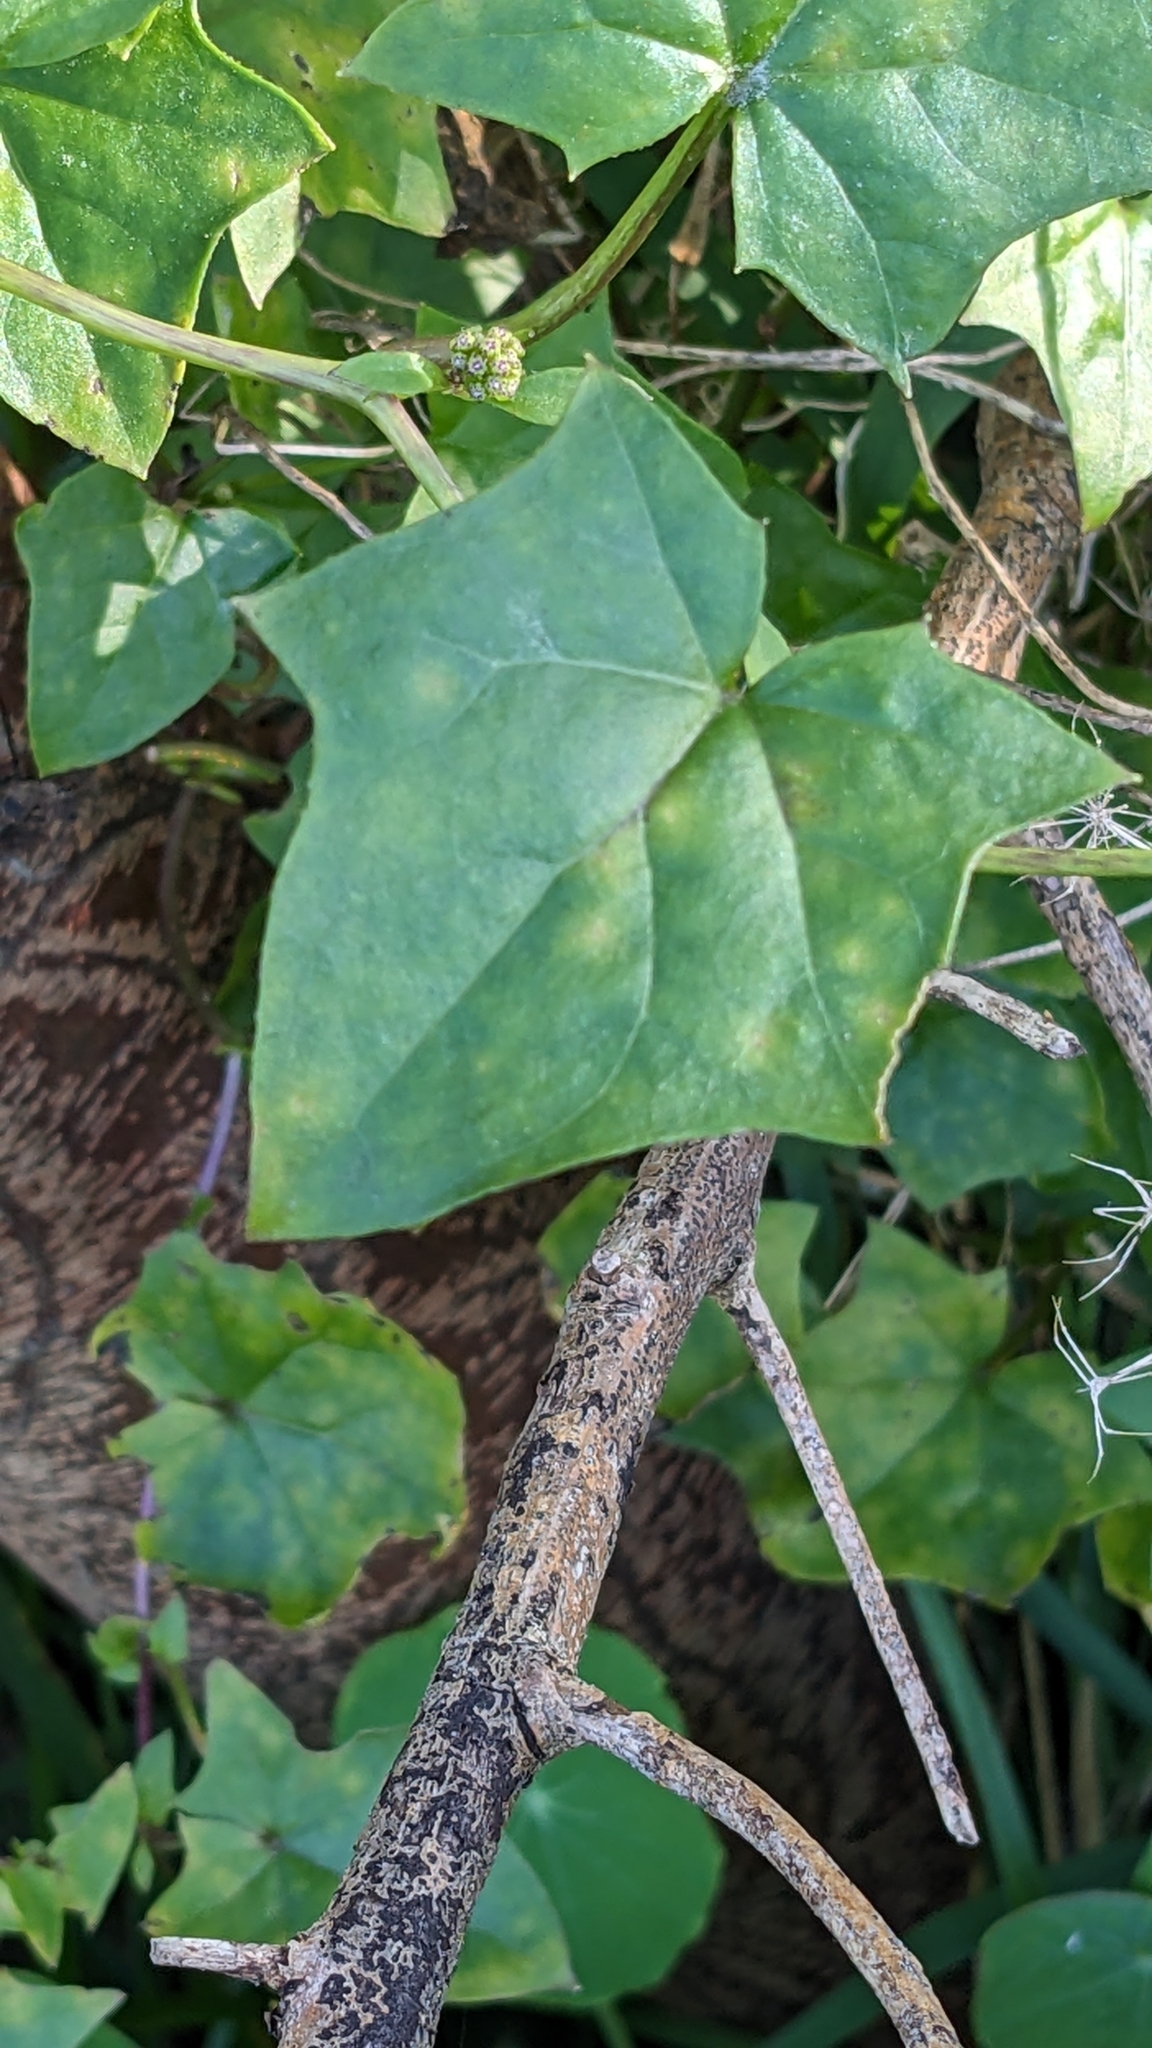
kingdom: Plantae
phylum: Tracheophyta
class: Magnoliopsida
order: Asterales
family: Asteraceae
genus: Delairea
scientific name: Delairea odorata
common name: Cape-ivy
